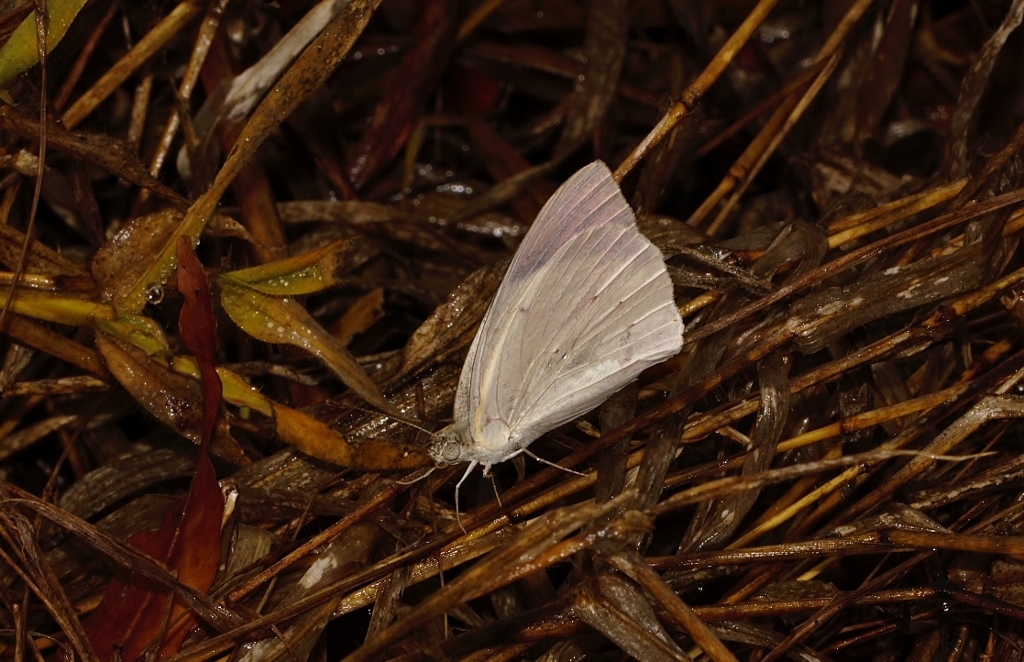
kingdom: Animalia
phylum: Arthropoda
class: Insecta
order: Lepidoptera
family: Pieridae
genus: Colotis
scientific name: Colotis regina
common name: Queen purple tip
